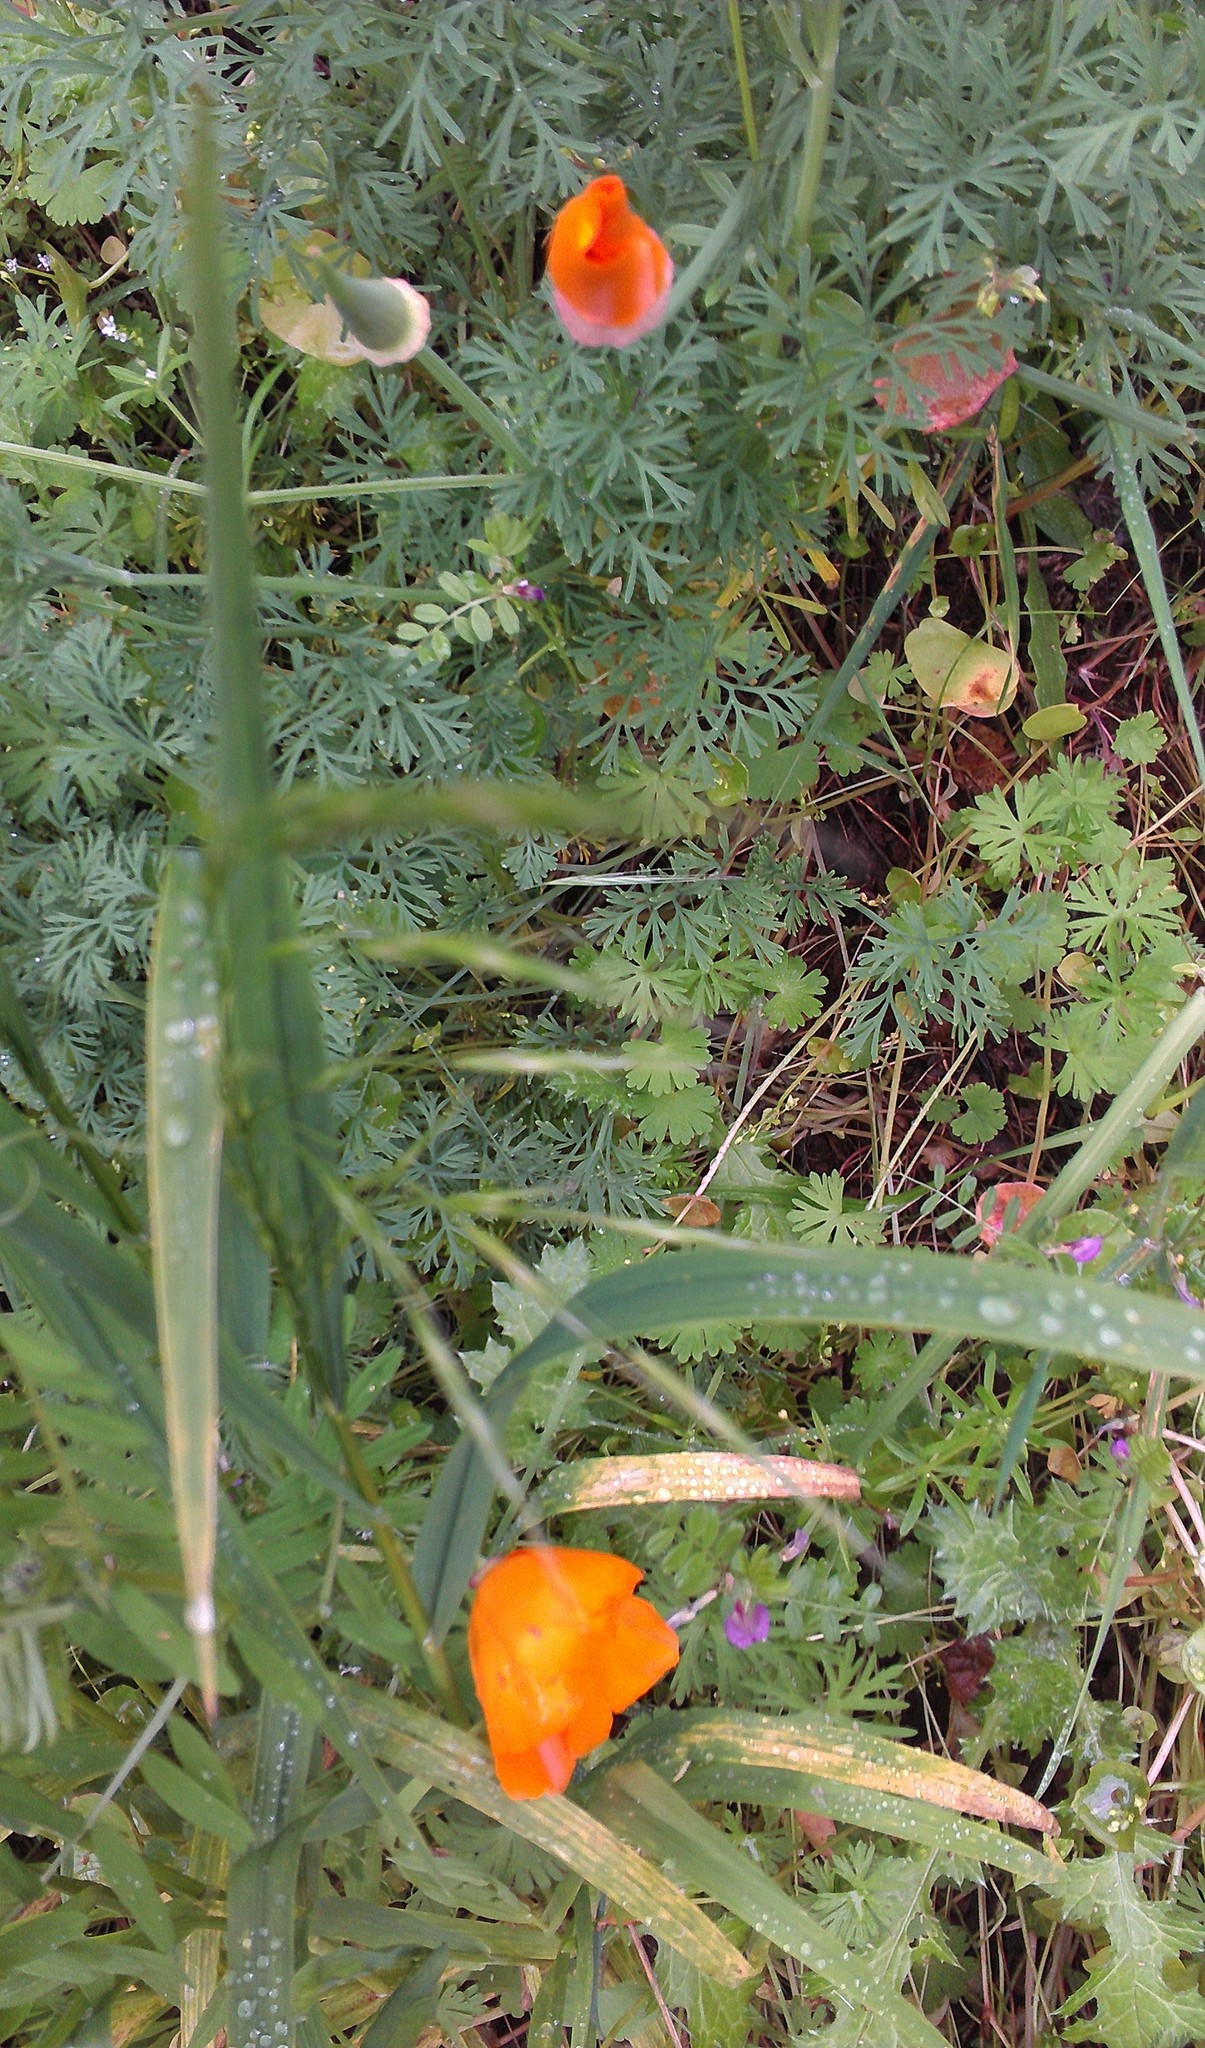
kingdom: Plantae
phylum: Tracheophyta
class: Magnoliopsida
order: Ranunculales
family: Papaveraceae
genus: Eschscholzia
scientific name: Eschscholzia californica
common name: California poppy
